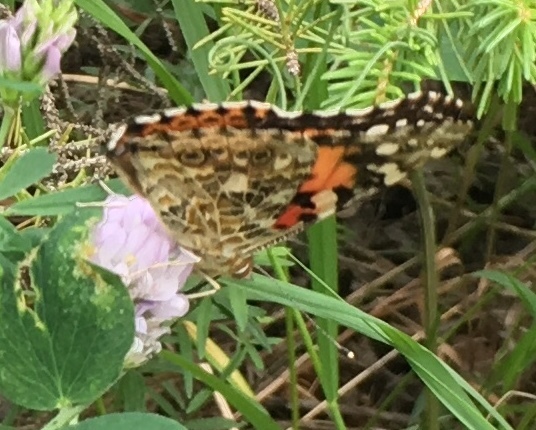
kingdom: Animalia
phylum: Arthropoda
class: Insecta
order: Lepidoptera
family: Nymphalidae
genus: Vanessa
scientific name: Vanessa cardui
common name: Painted lady
